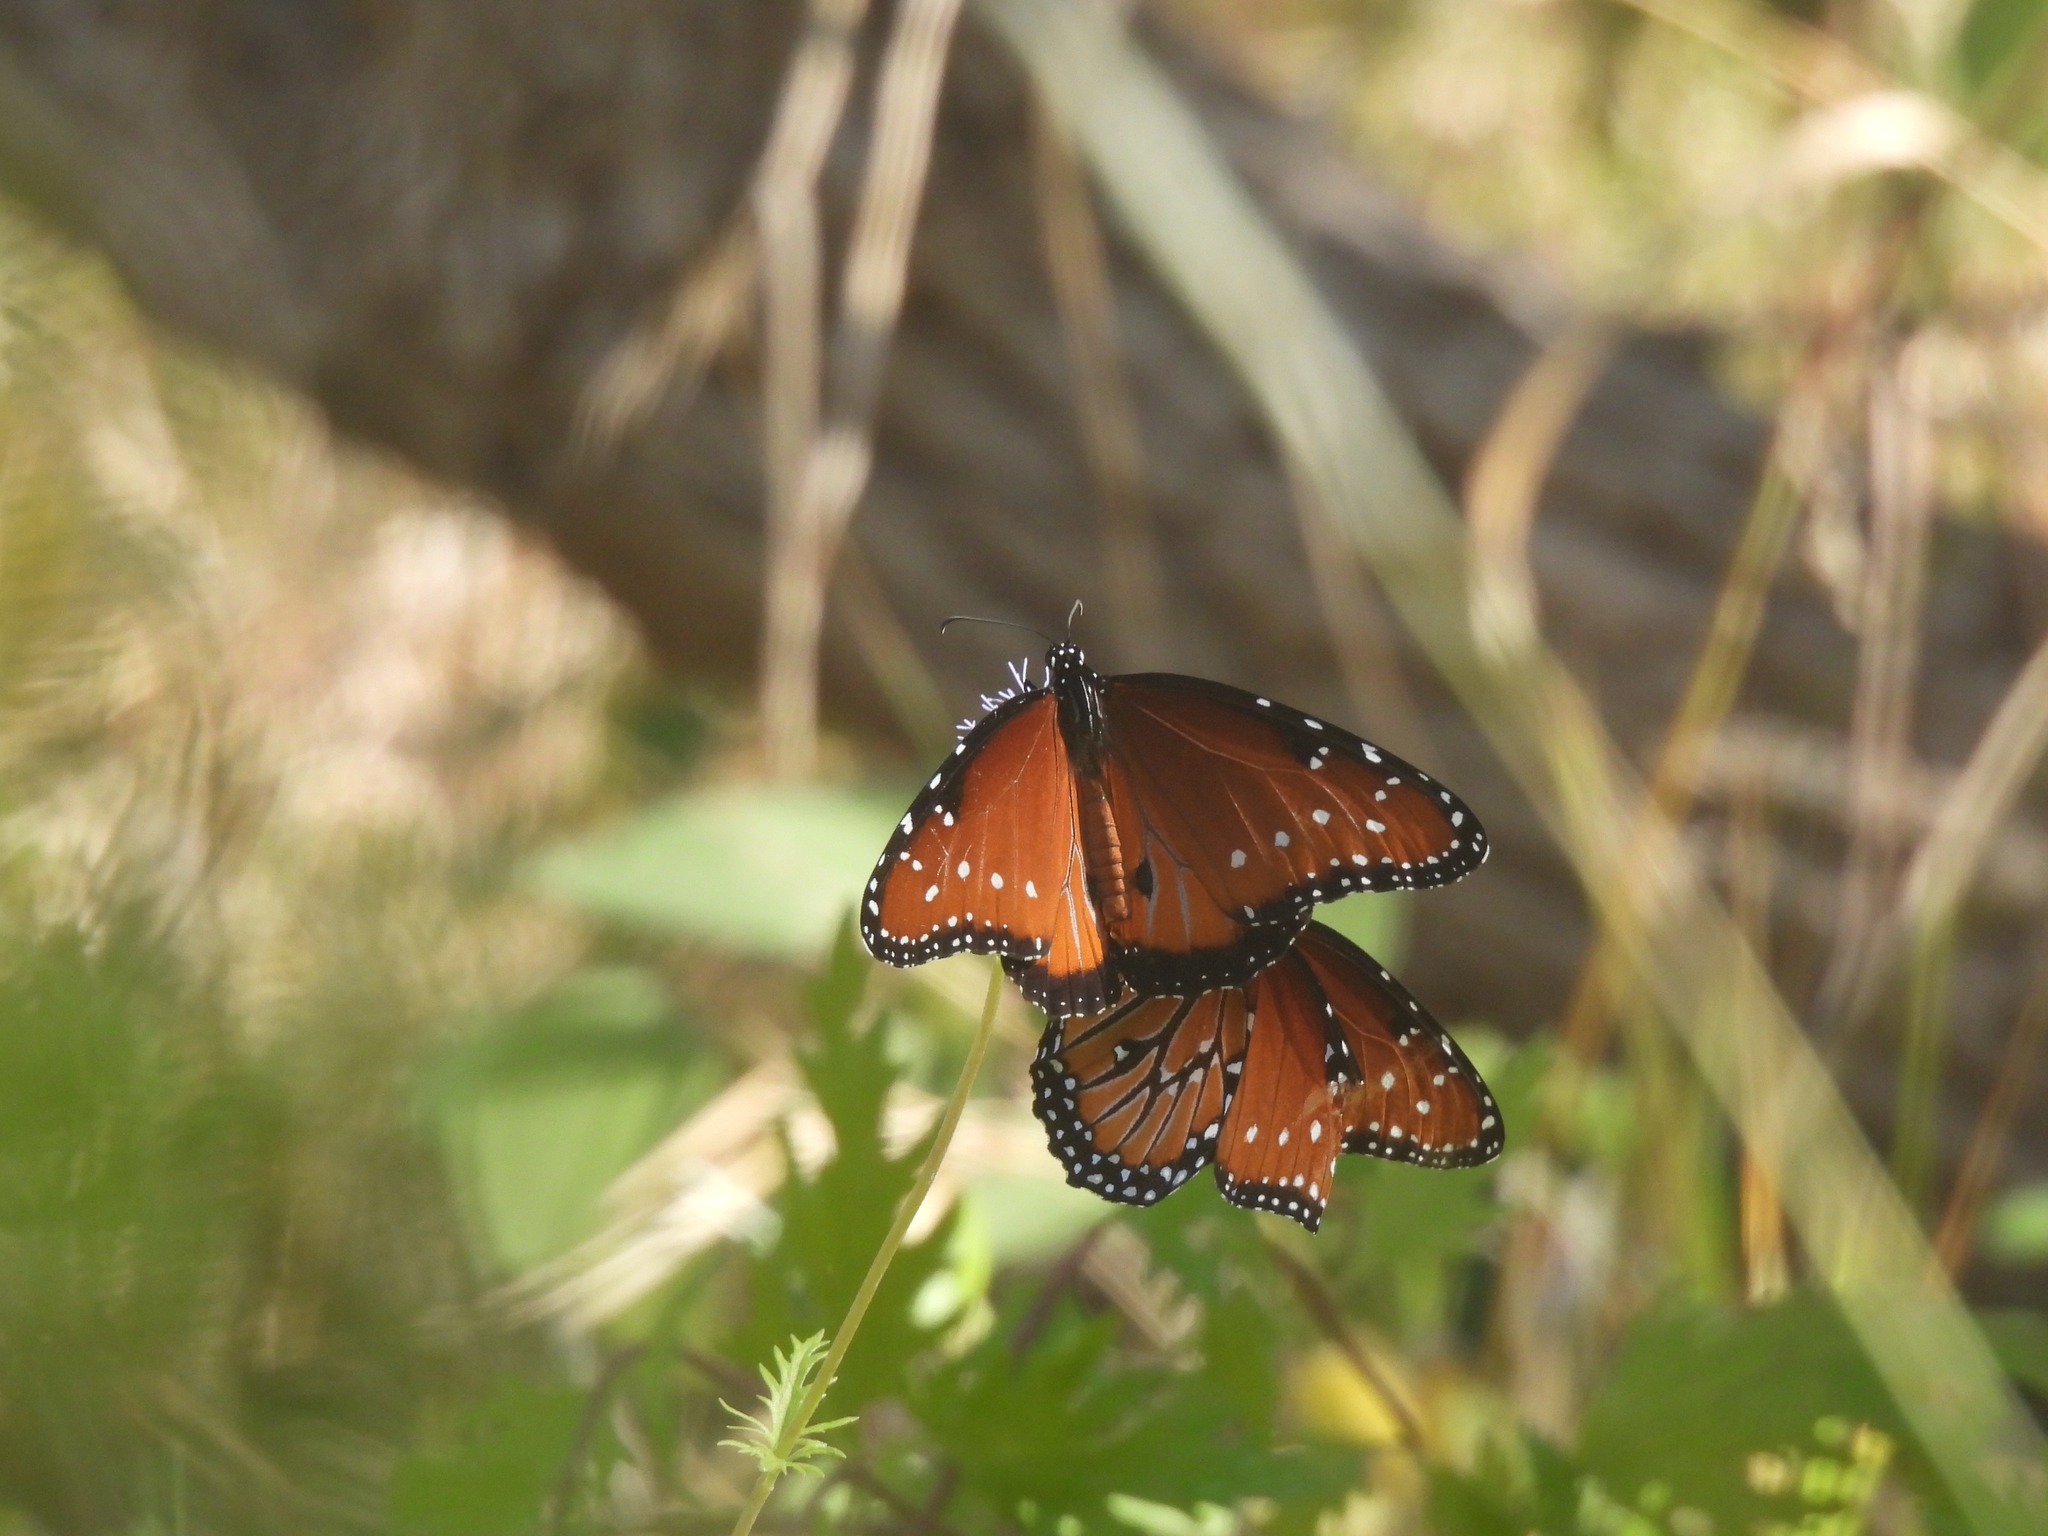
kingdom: Animalia
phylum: Arthropoda
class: Insecta
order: Lepidoptera
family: Nymphalidae
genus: Danaus
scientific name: Danaus gilippus
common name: Queen
